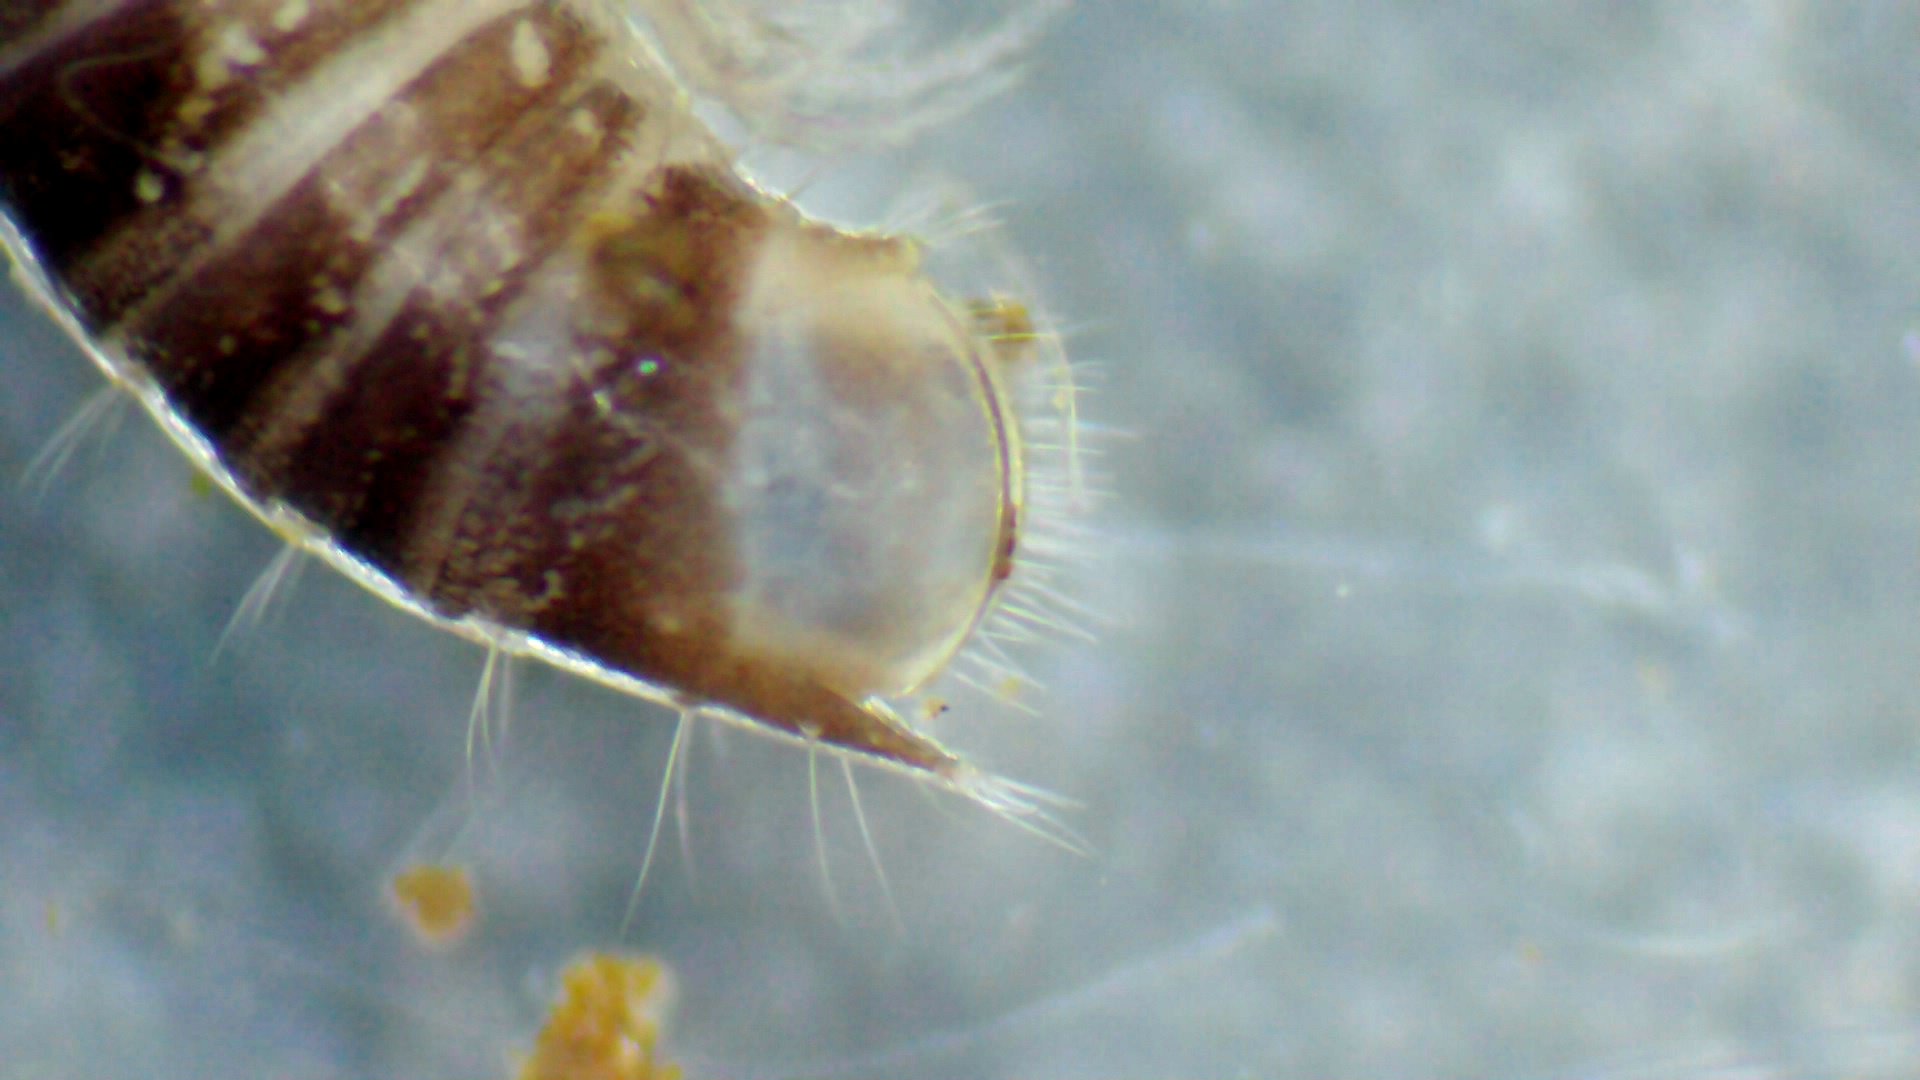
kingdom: Animalia
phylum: Arthropoda
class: Diplopoda
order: Julida
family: Julidae
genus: Ophyiulus
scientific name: Ophyiulus pilosus
